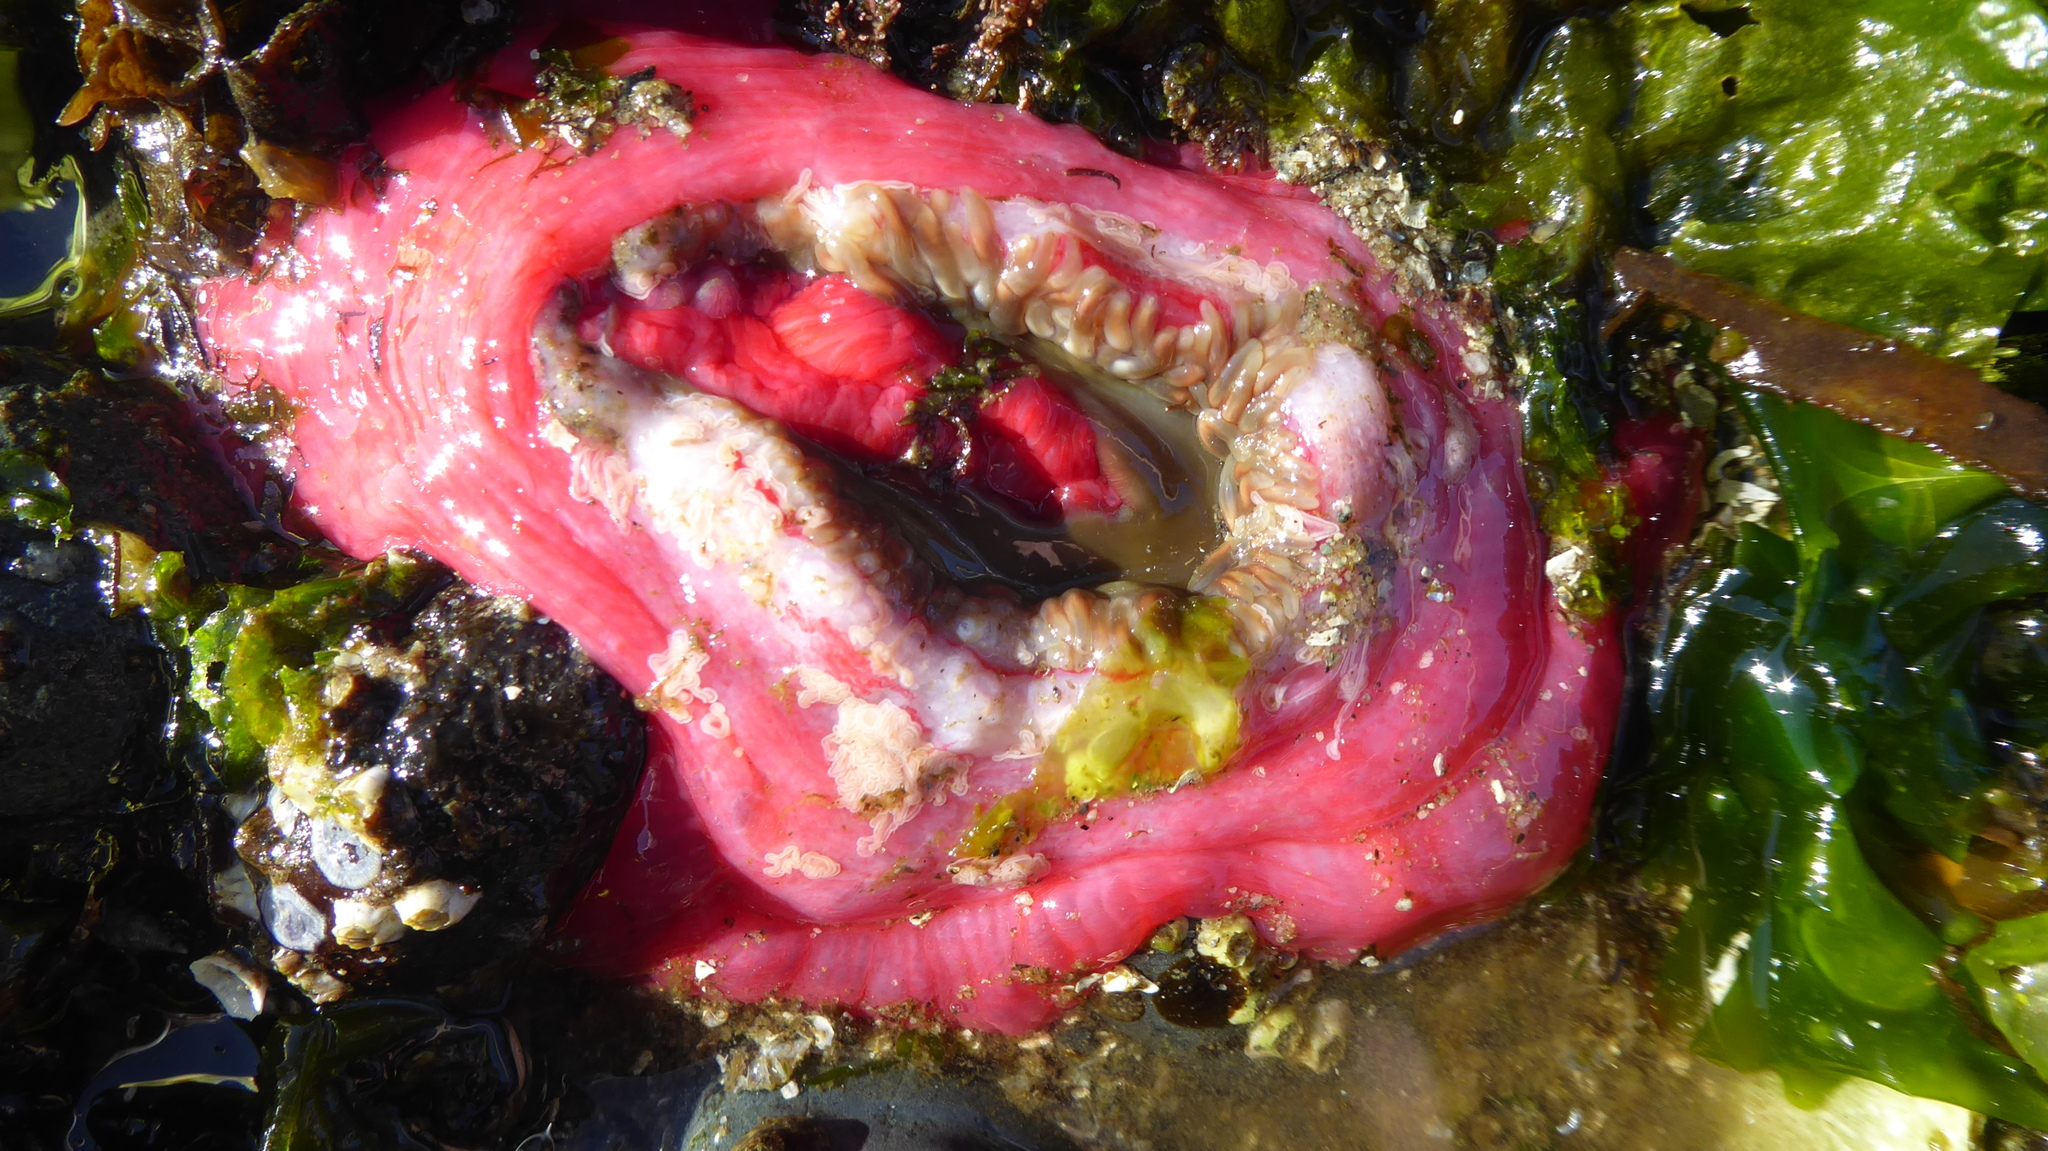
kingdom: Animalia
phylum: Cnidaria
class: Anthozoa
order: Actiniaria
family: Actiniidae
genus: Urticina
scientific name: Urticina clandestina
